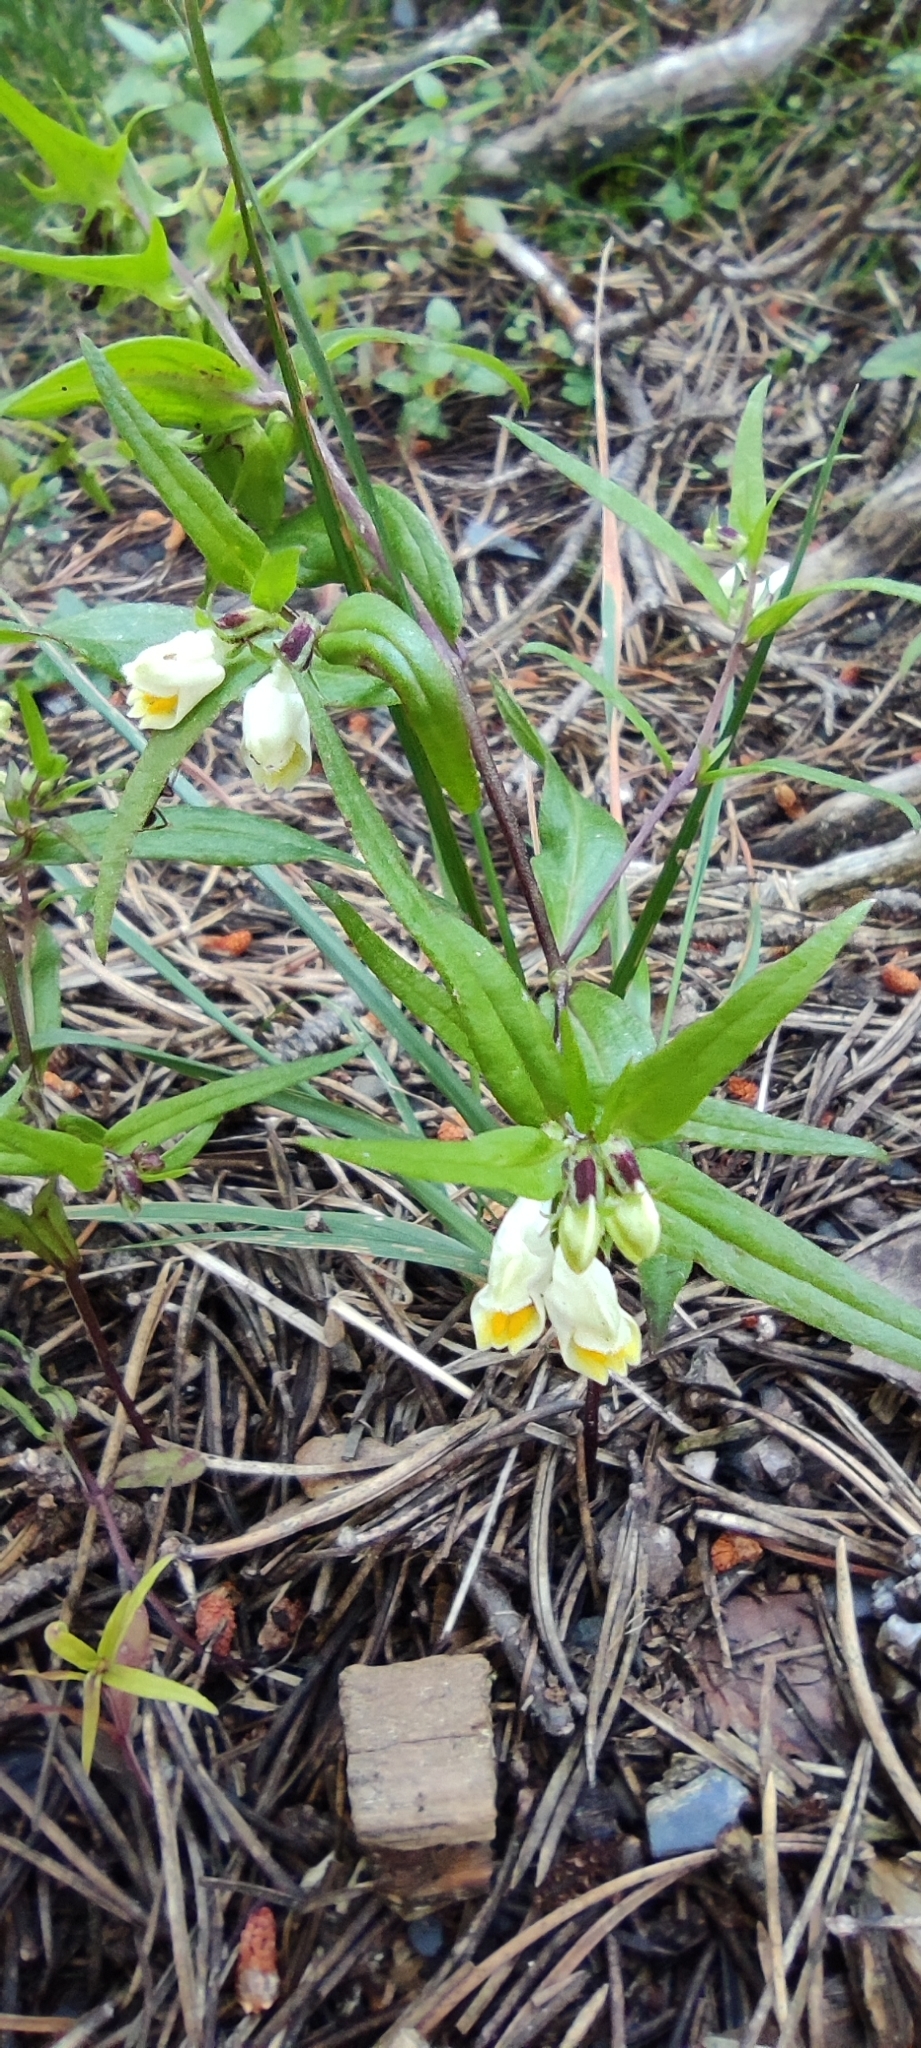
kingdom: Plantae
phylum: Tracheophyta
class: Magnoliopsida
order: Lamiales
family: Orobanchaceae
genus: Melampyrum
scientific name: Melampyrum pratense
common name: Common cow-wheat
